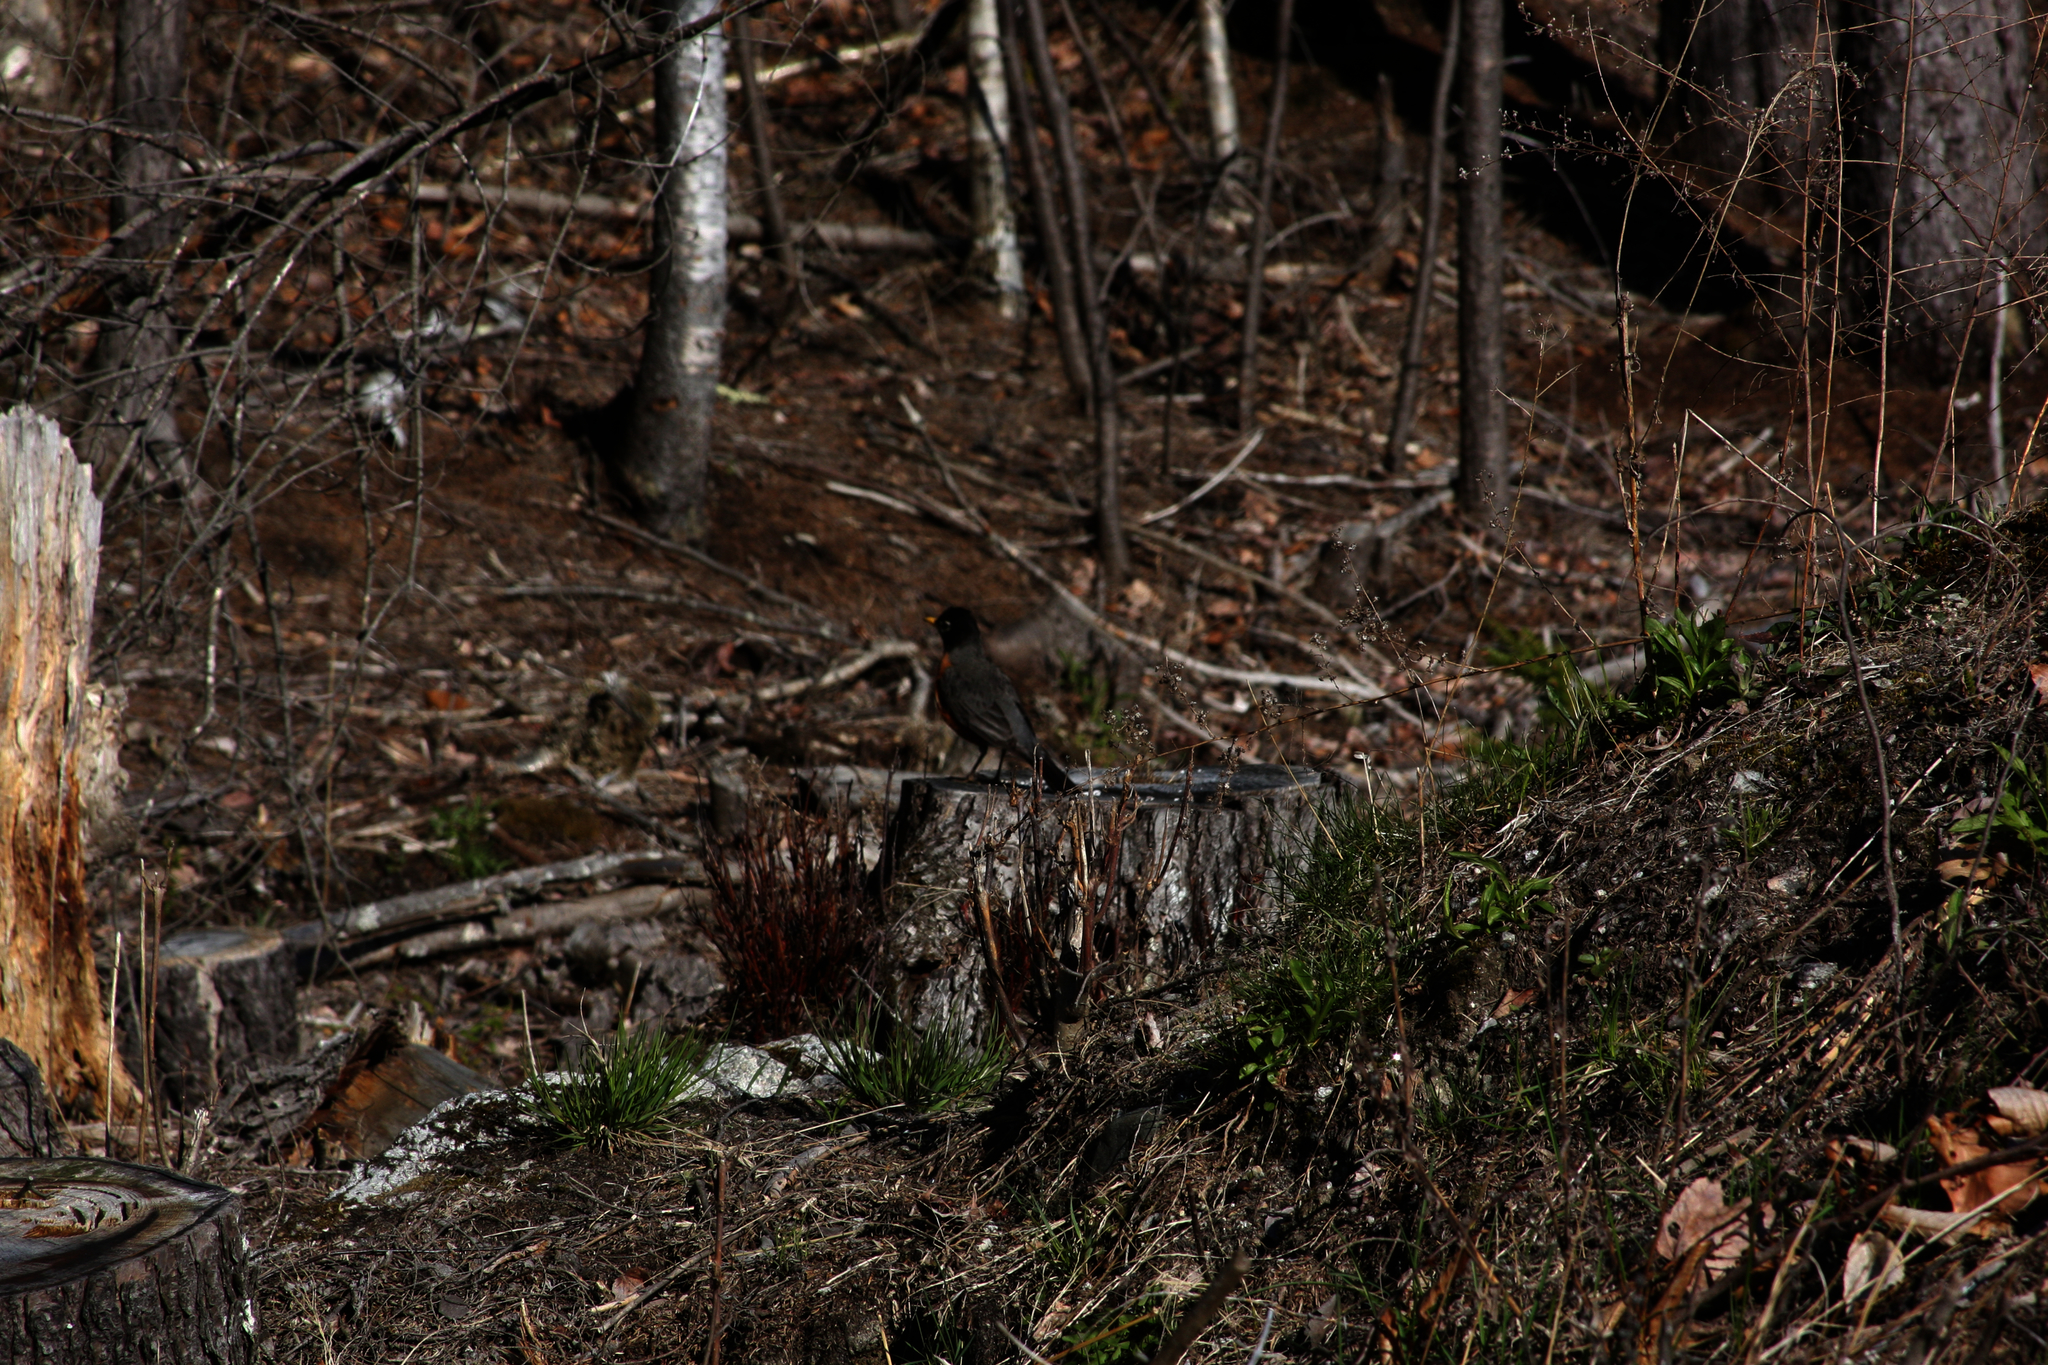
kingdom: Animalia
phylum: Chordata
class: Aves
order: Passeriformes
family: Turdidae
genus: Turdus
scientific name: Turdus migratorius
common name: American robin
